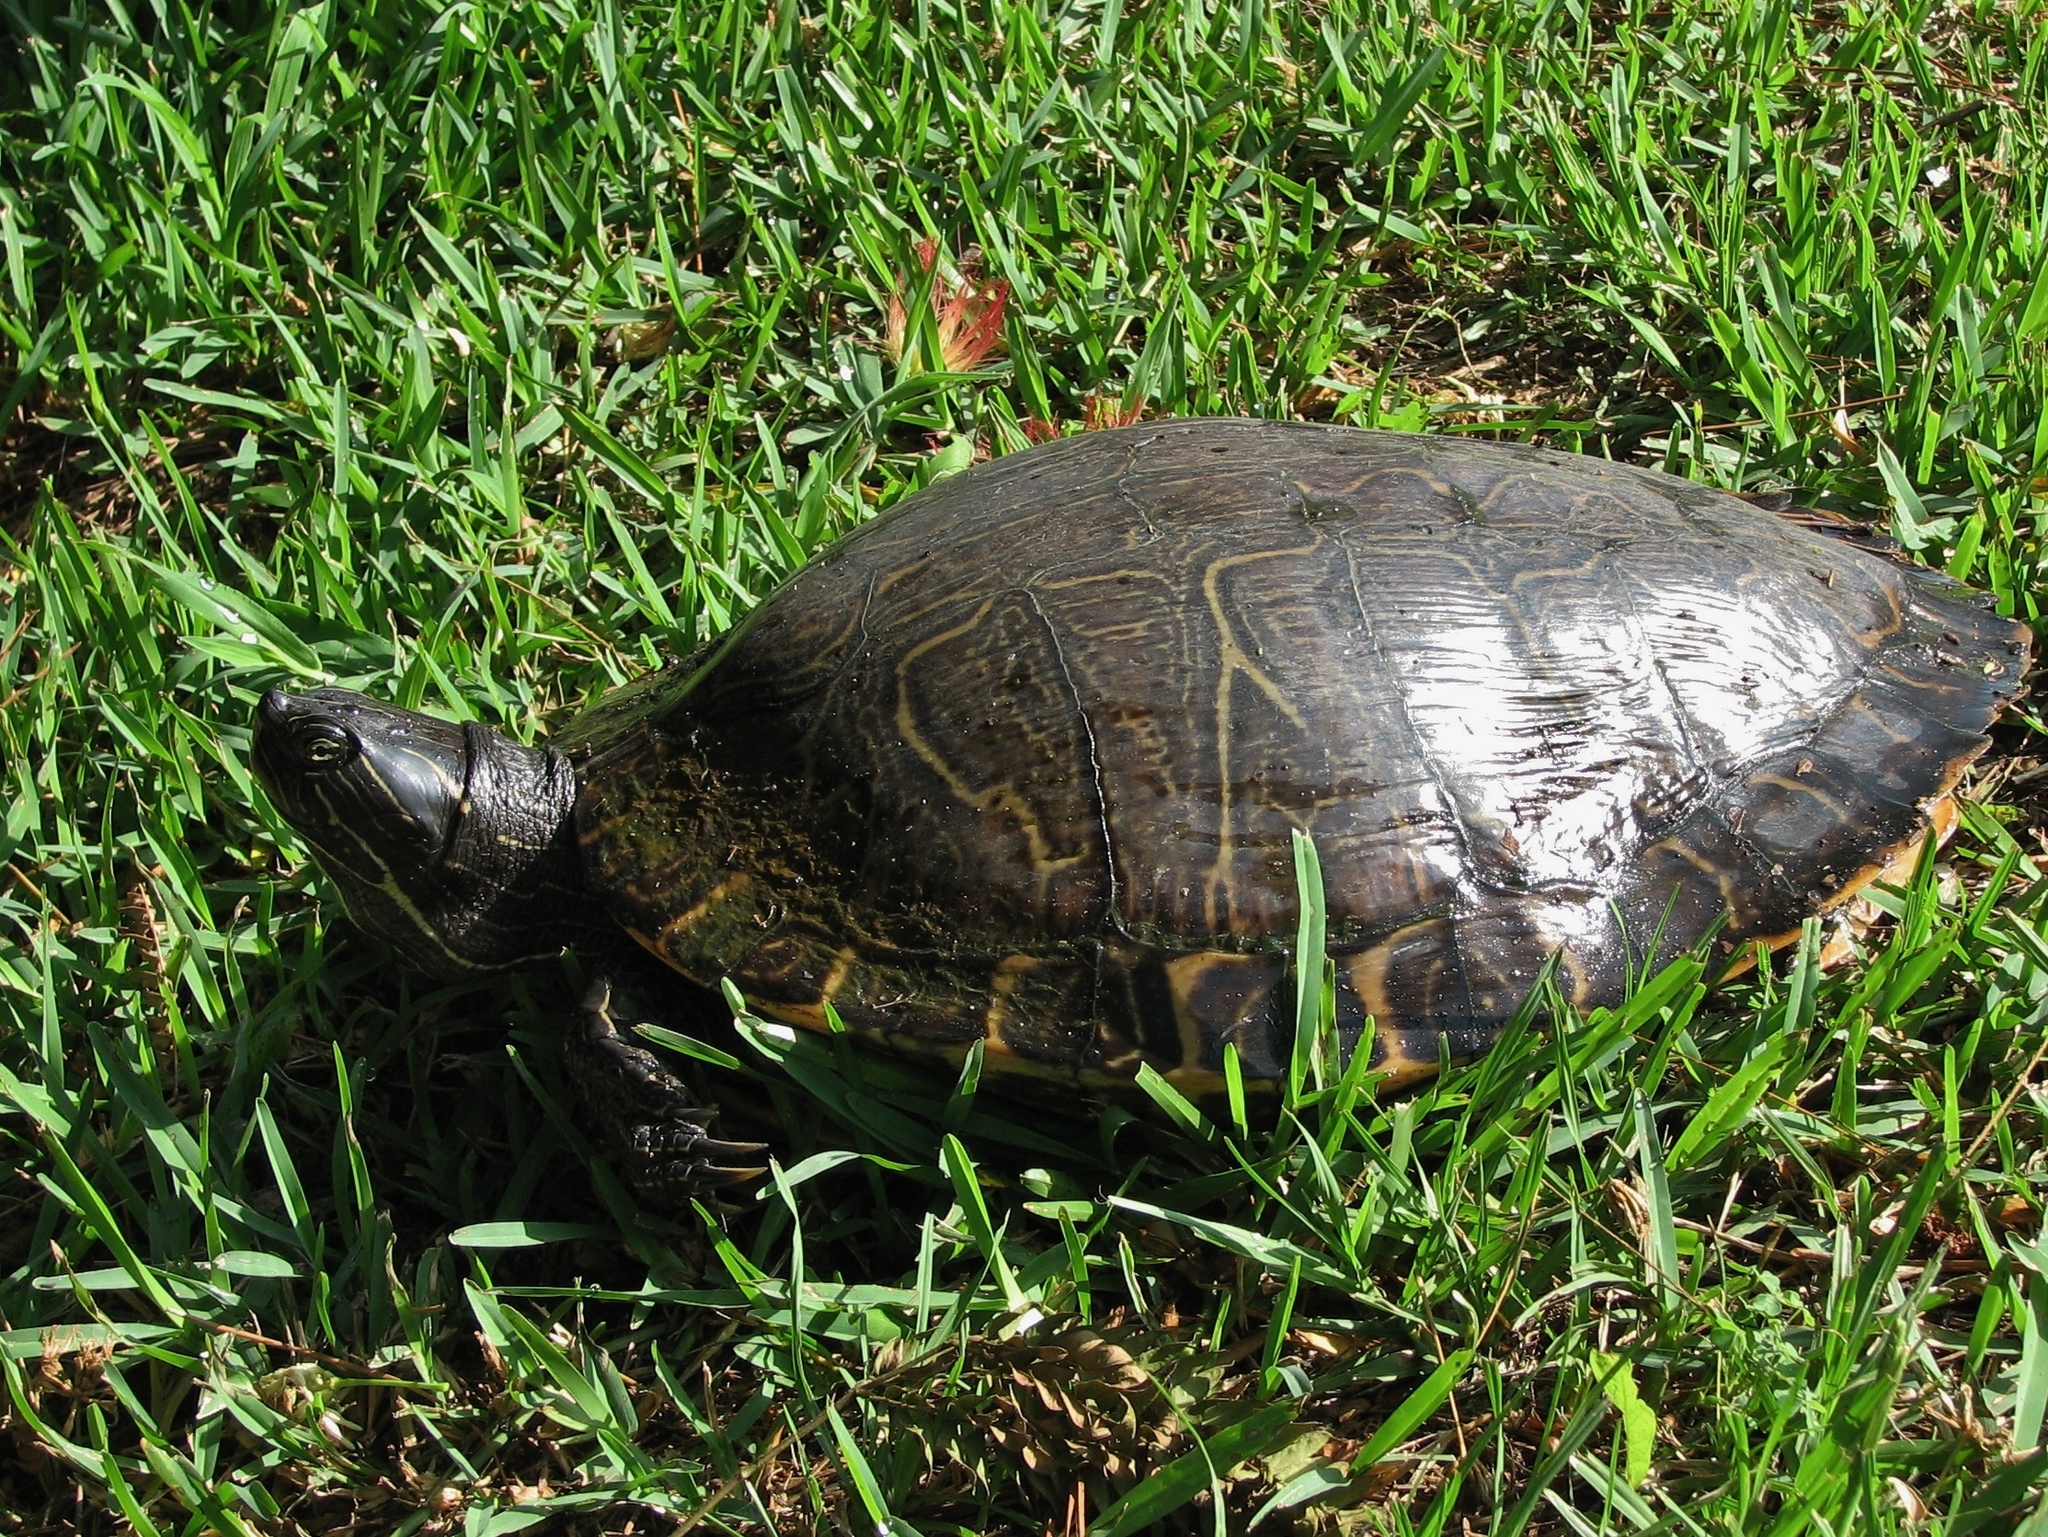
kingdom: Animalia
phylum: Chordata
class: Testudines
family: Emydidae
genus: Pseudemys
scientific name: Pseudemys concinna
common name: Eastern river cooter
